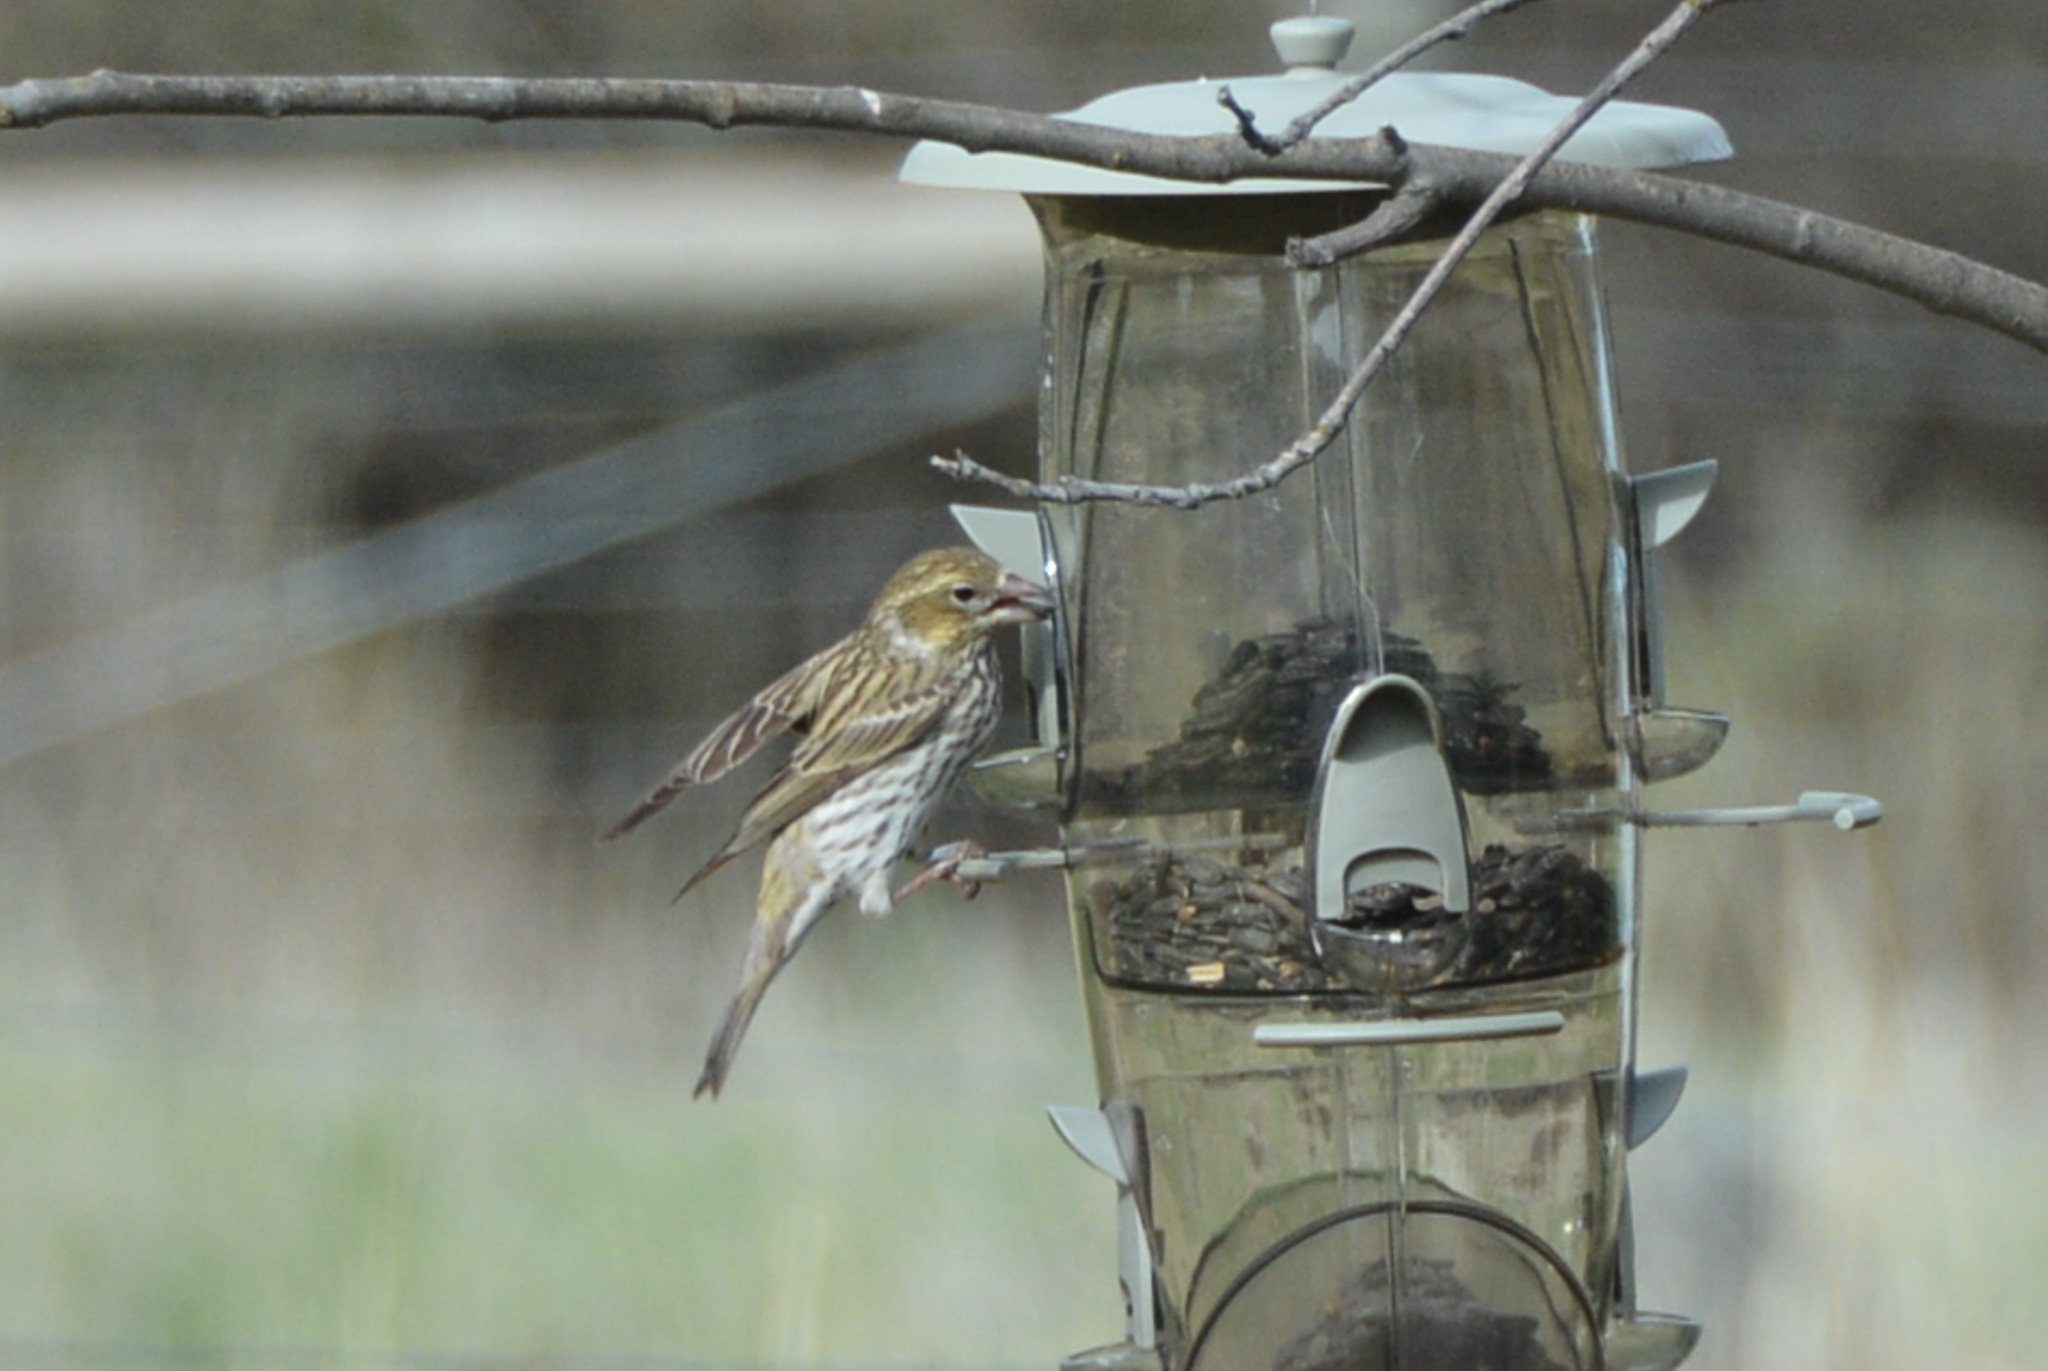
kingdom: Animalia
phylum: Chordata
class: Aves
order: Passeriformes
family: Fringillidae
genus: Haemorhous
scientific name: Haemorhous cassinii
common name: Cassin's finch
